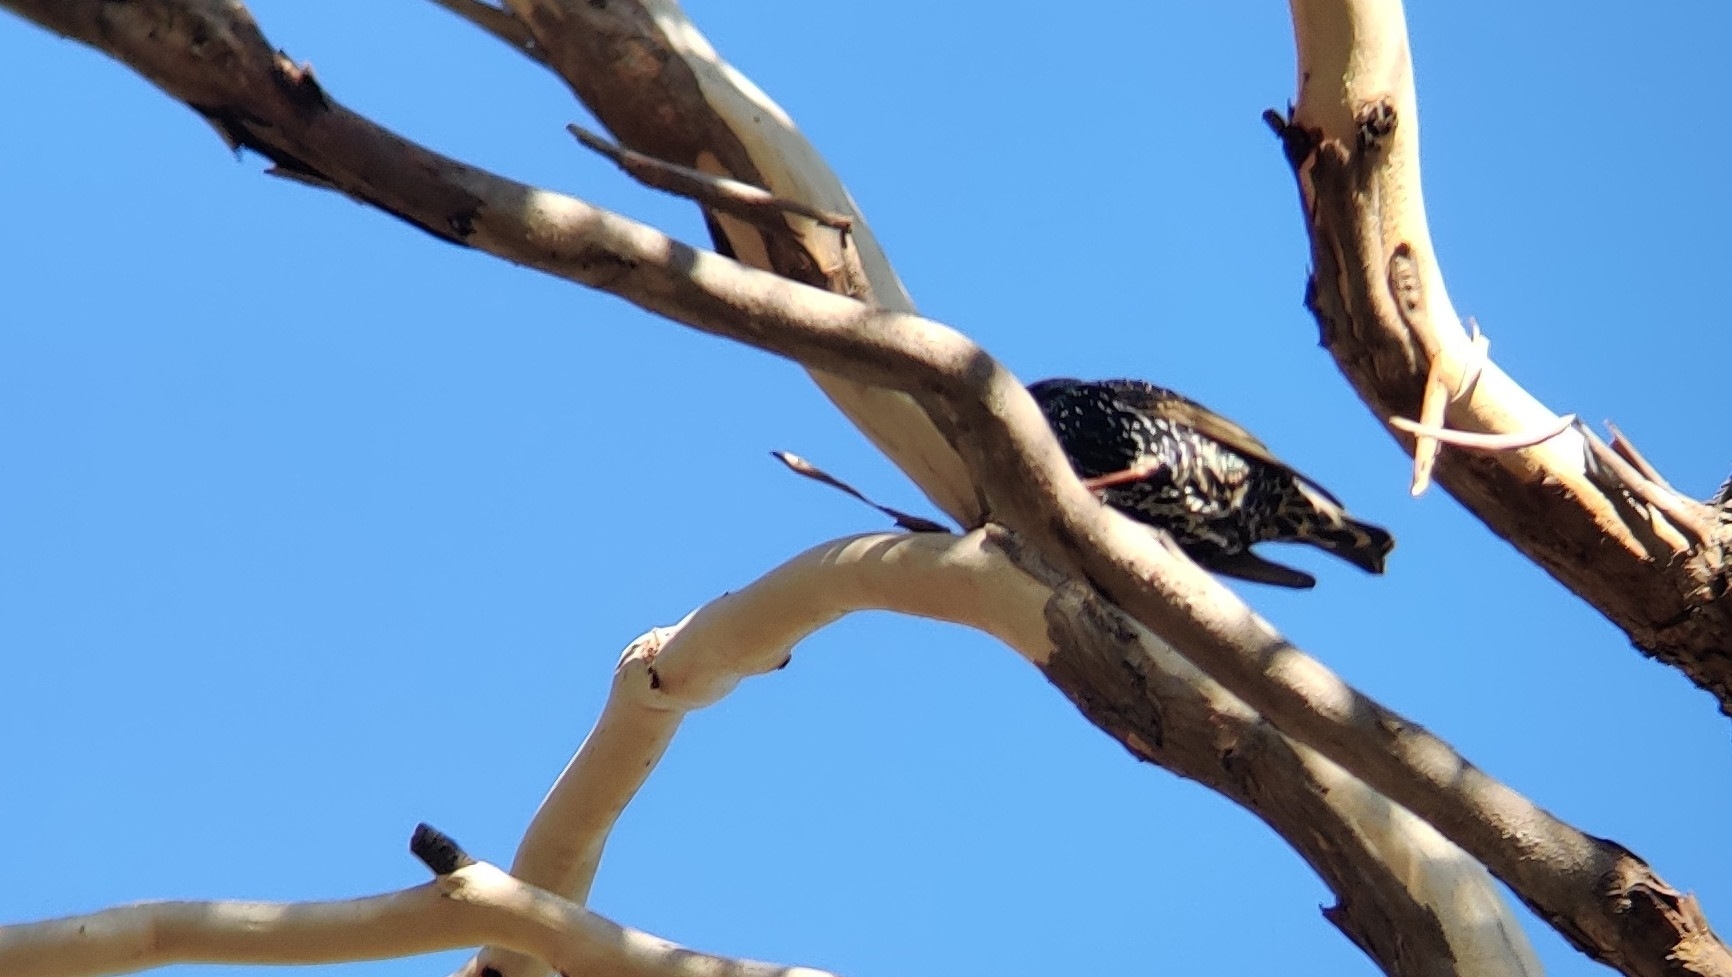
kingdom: Animalia
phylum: Chordata
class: Aves
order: Passeriformes
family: Sturnidae
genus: Sturnus
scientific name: Sturnus vulgaris
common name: Common starling
